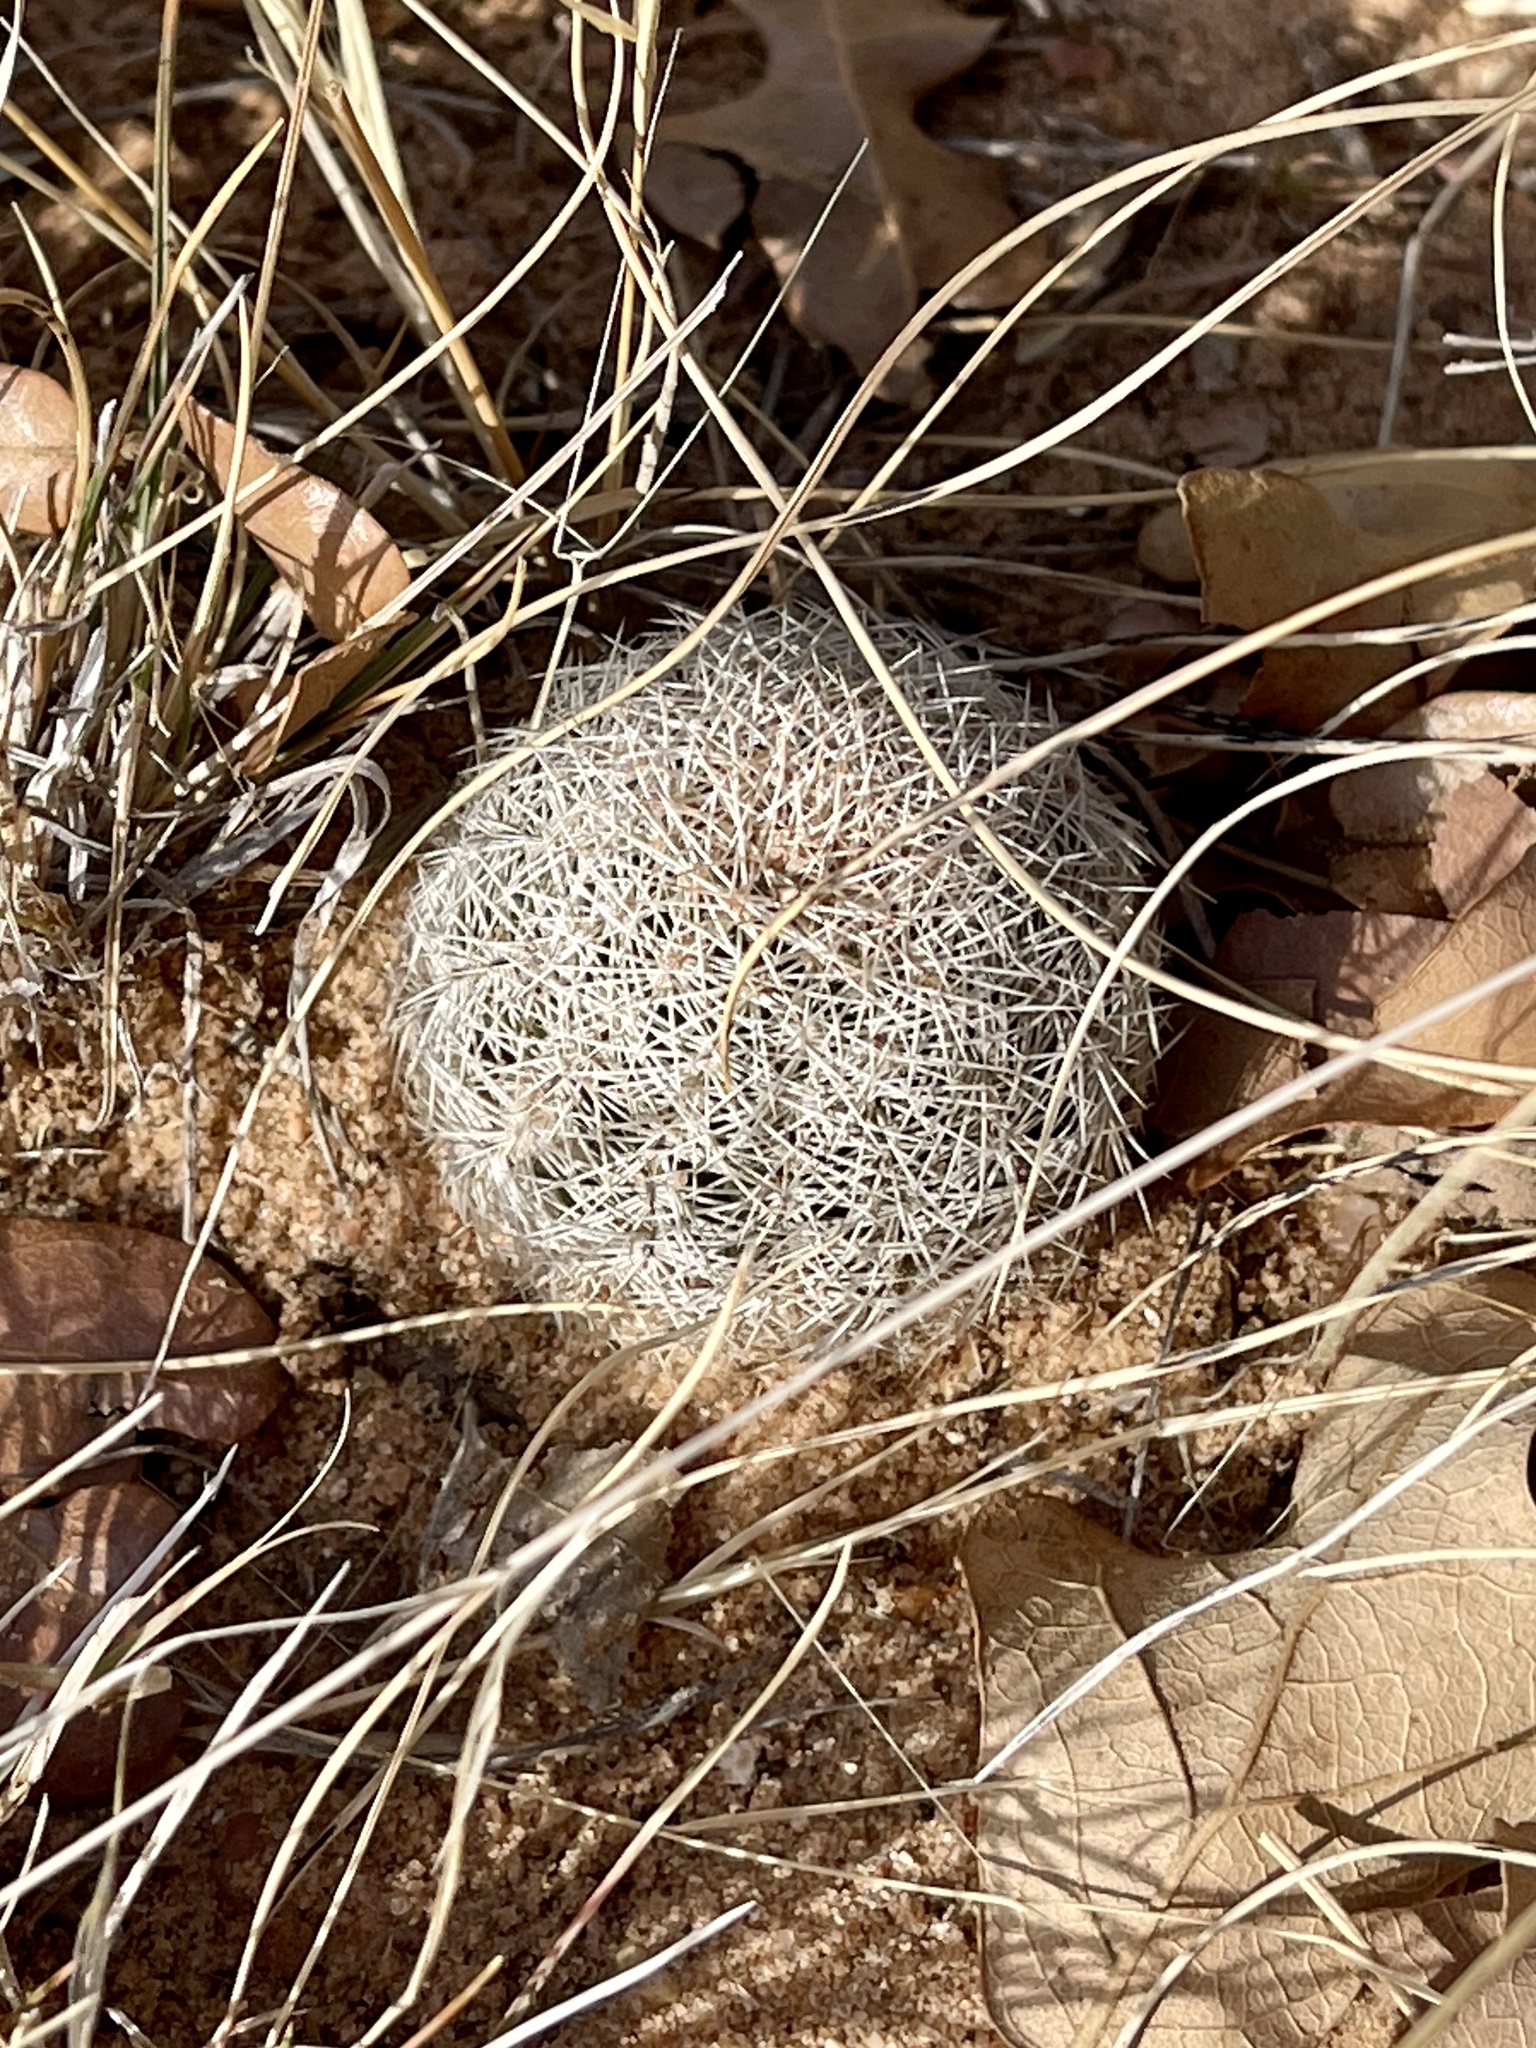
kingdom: Plantae
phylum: Tracheophyta
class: Magnoliopsida
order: Caryophyllales
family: Cactaceae
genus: Echinocereus
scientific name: Echinocereus reichenbachii
